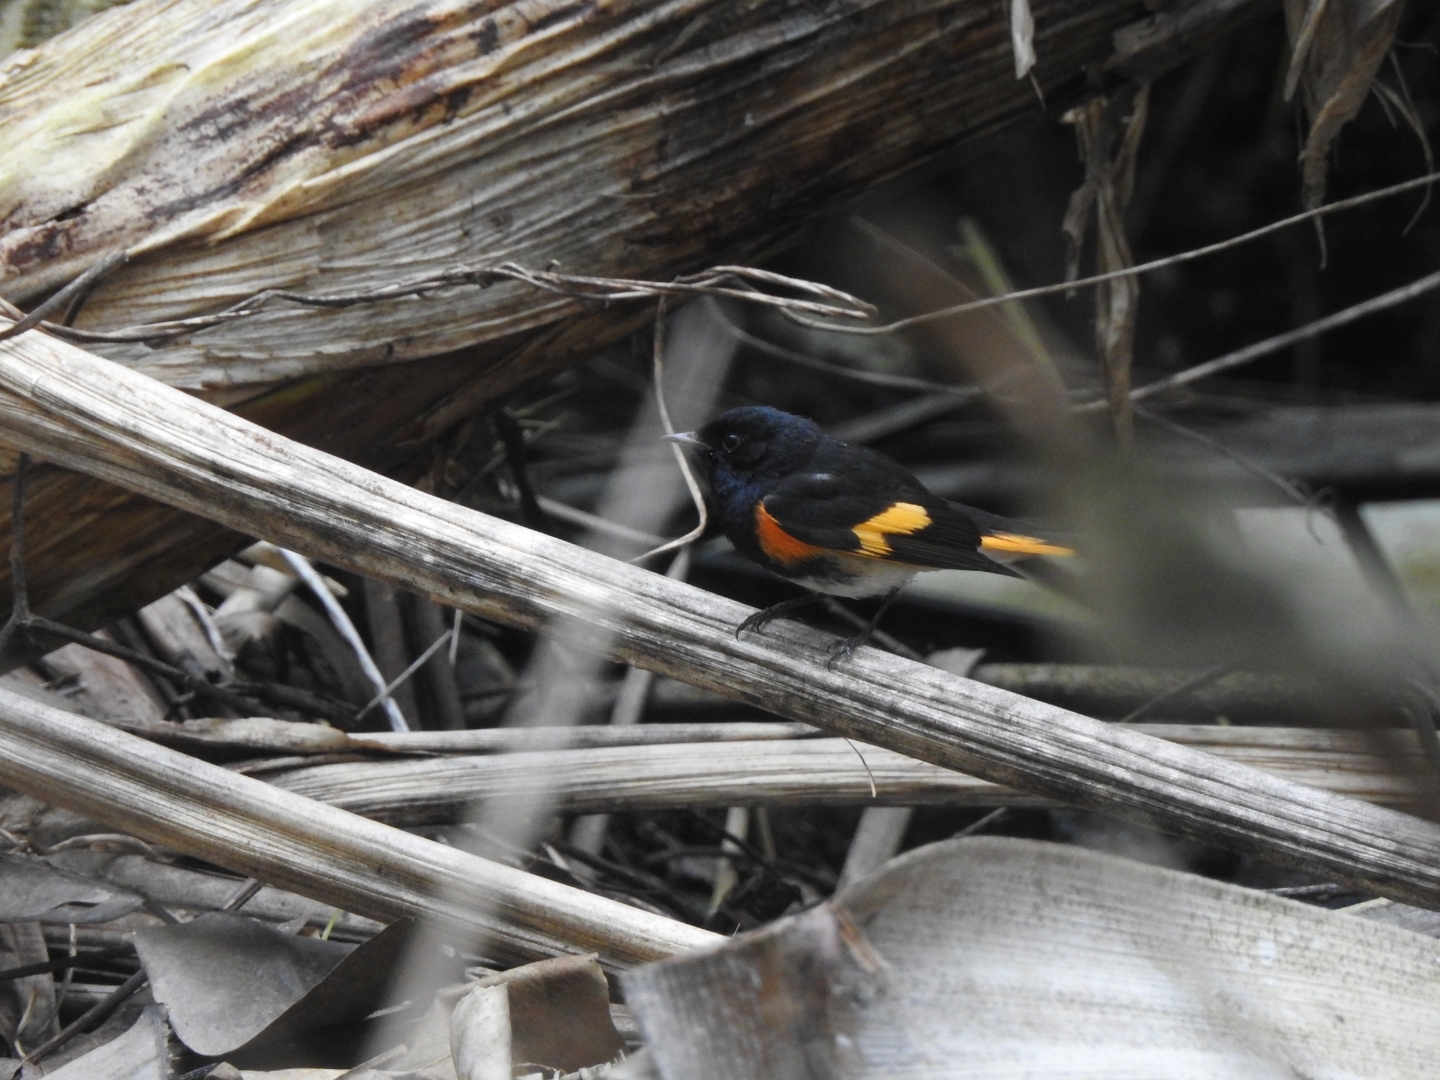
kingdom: Animalia
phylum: Chordata
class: Aves
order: Passeriformes
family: Parulidae
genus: Setophaga
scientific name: Setophaga ruticilla
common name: American redstart
